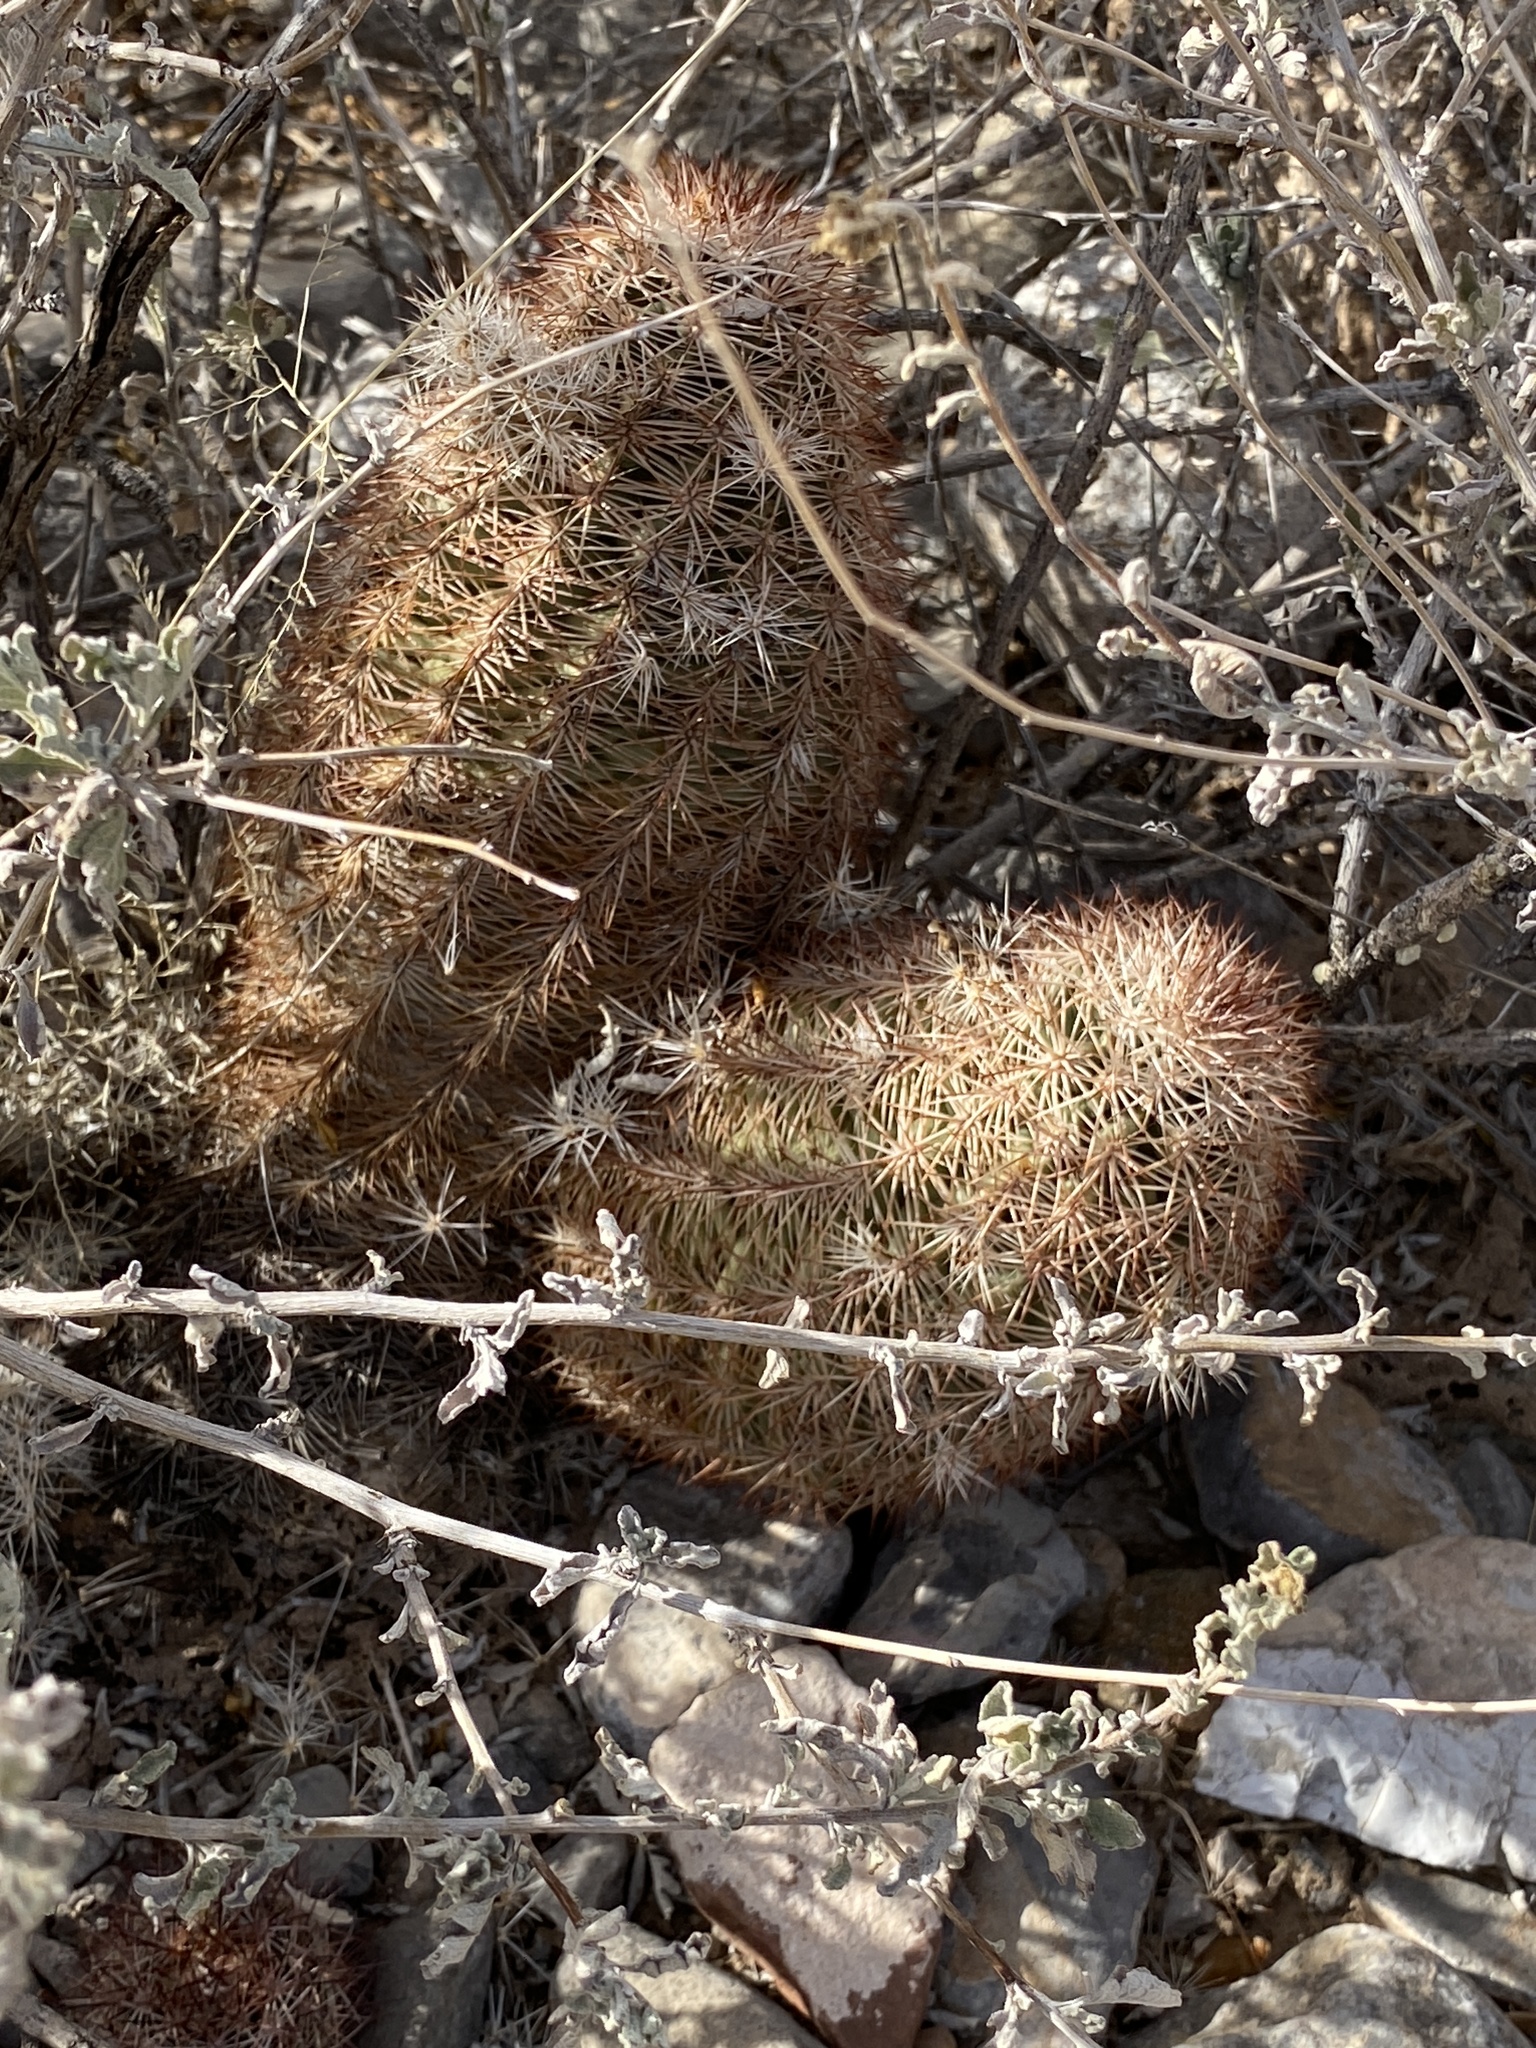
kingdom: Plantae
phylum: Tracheophyta
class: Magnoliopsida
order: Caryophyllales
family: Cactaceae
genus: Echinocereus
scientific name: Echinocereus dasyacanthus
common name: Spiny hedgehog cactus
